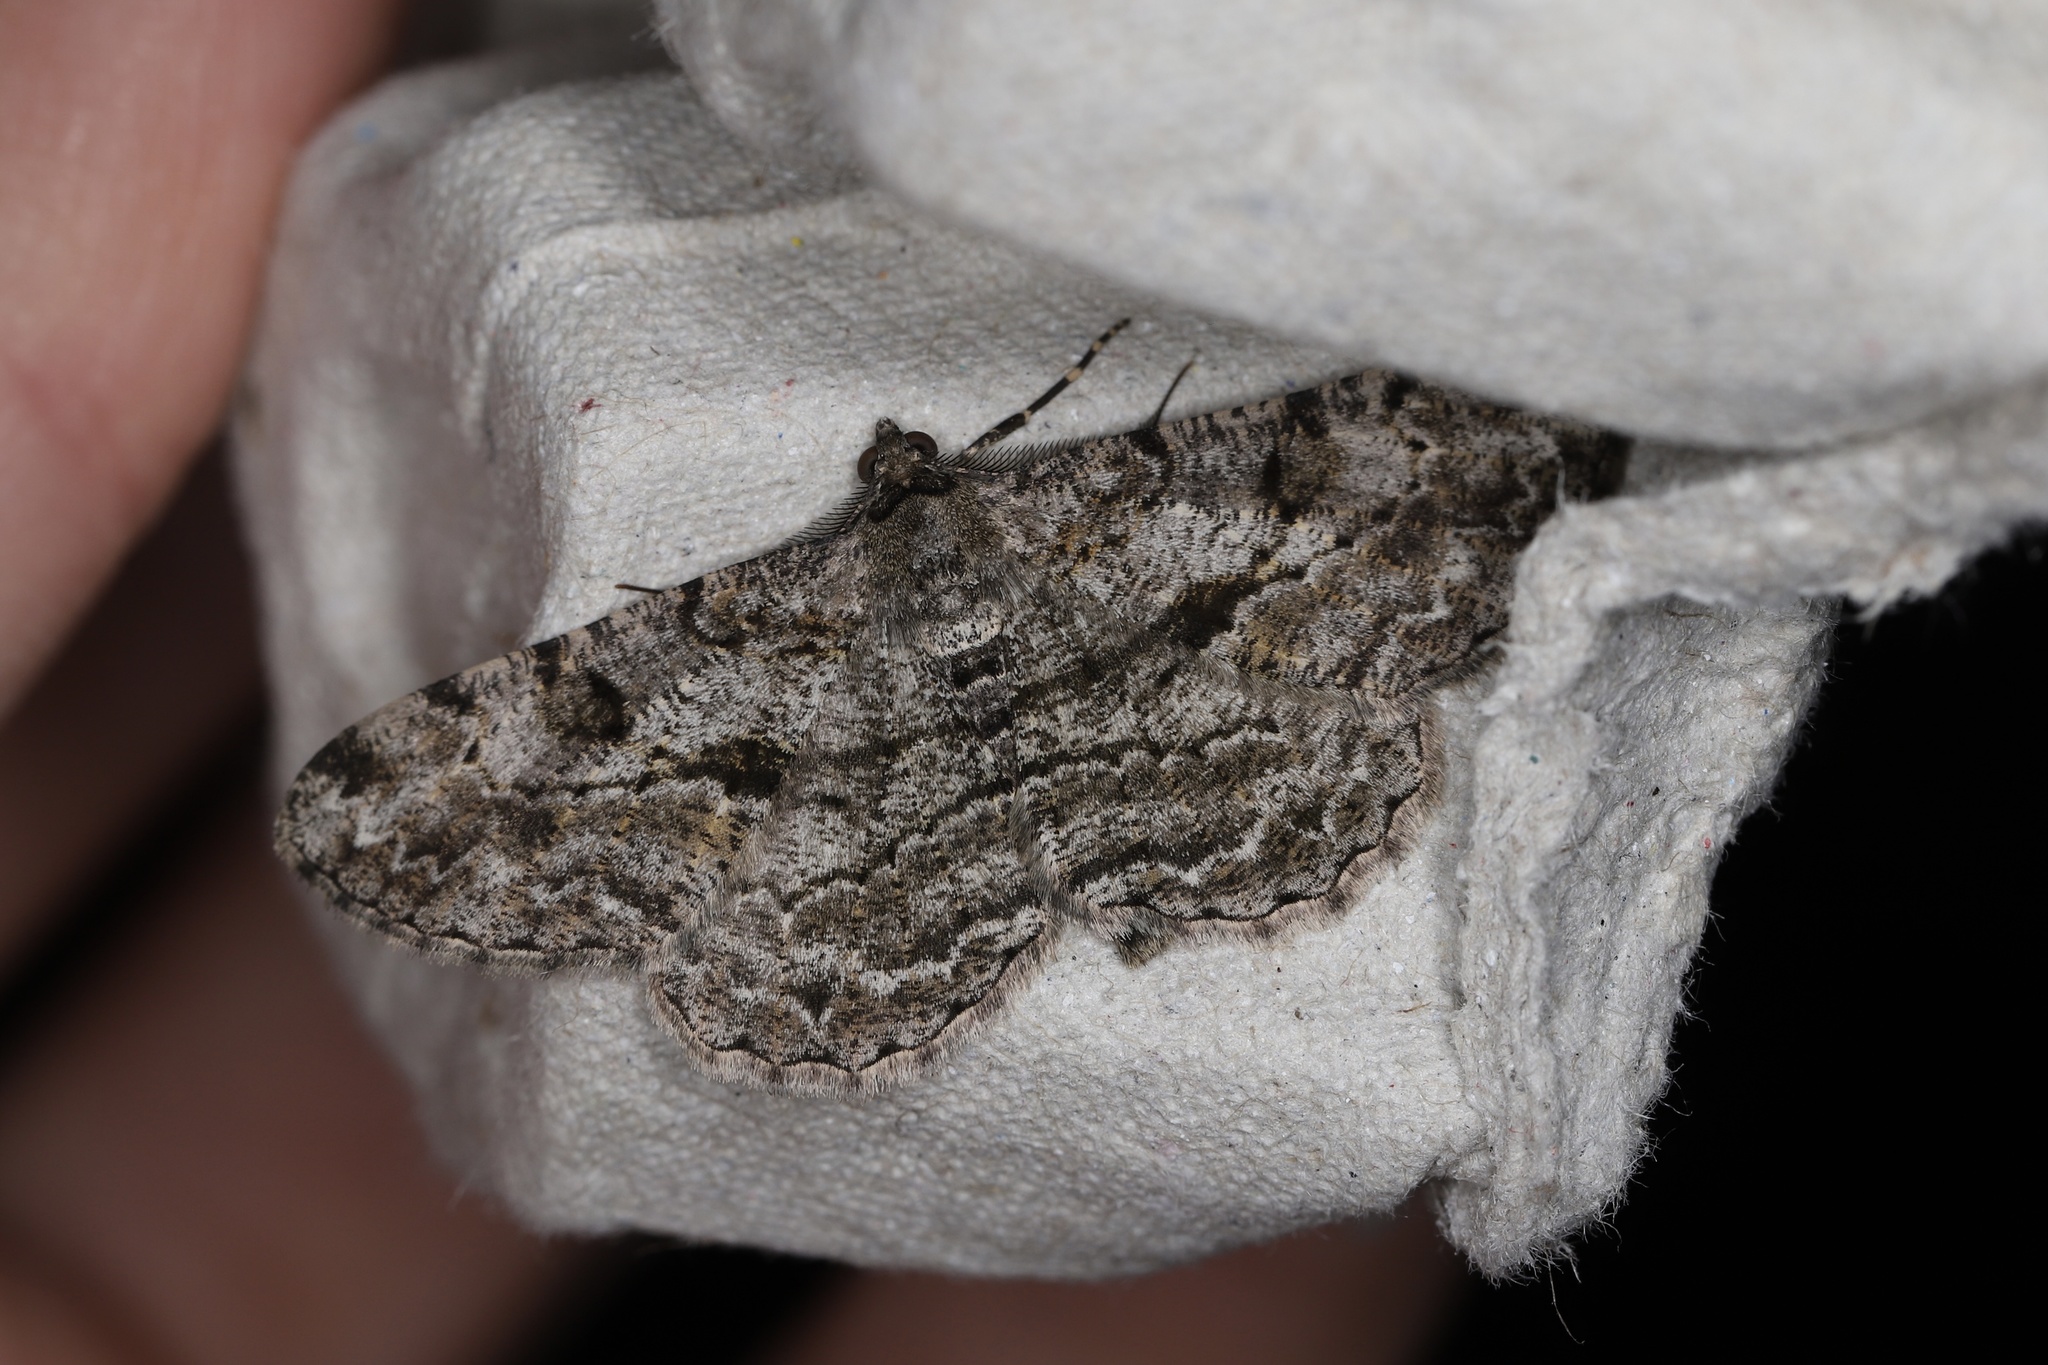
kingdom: Animalia
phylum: Arthropoda
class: Insecta
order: Lepidoptera
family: Geometridae
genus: Peribatodes
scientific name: Peribatodes rhomboidaria
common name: Willow beauty
